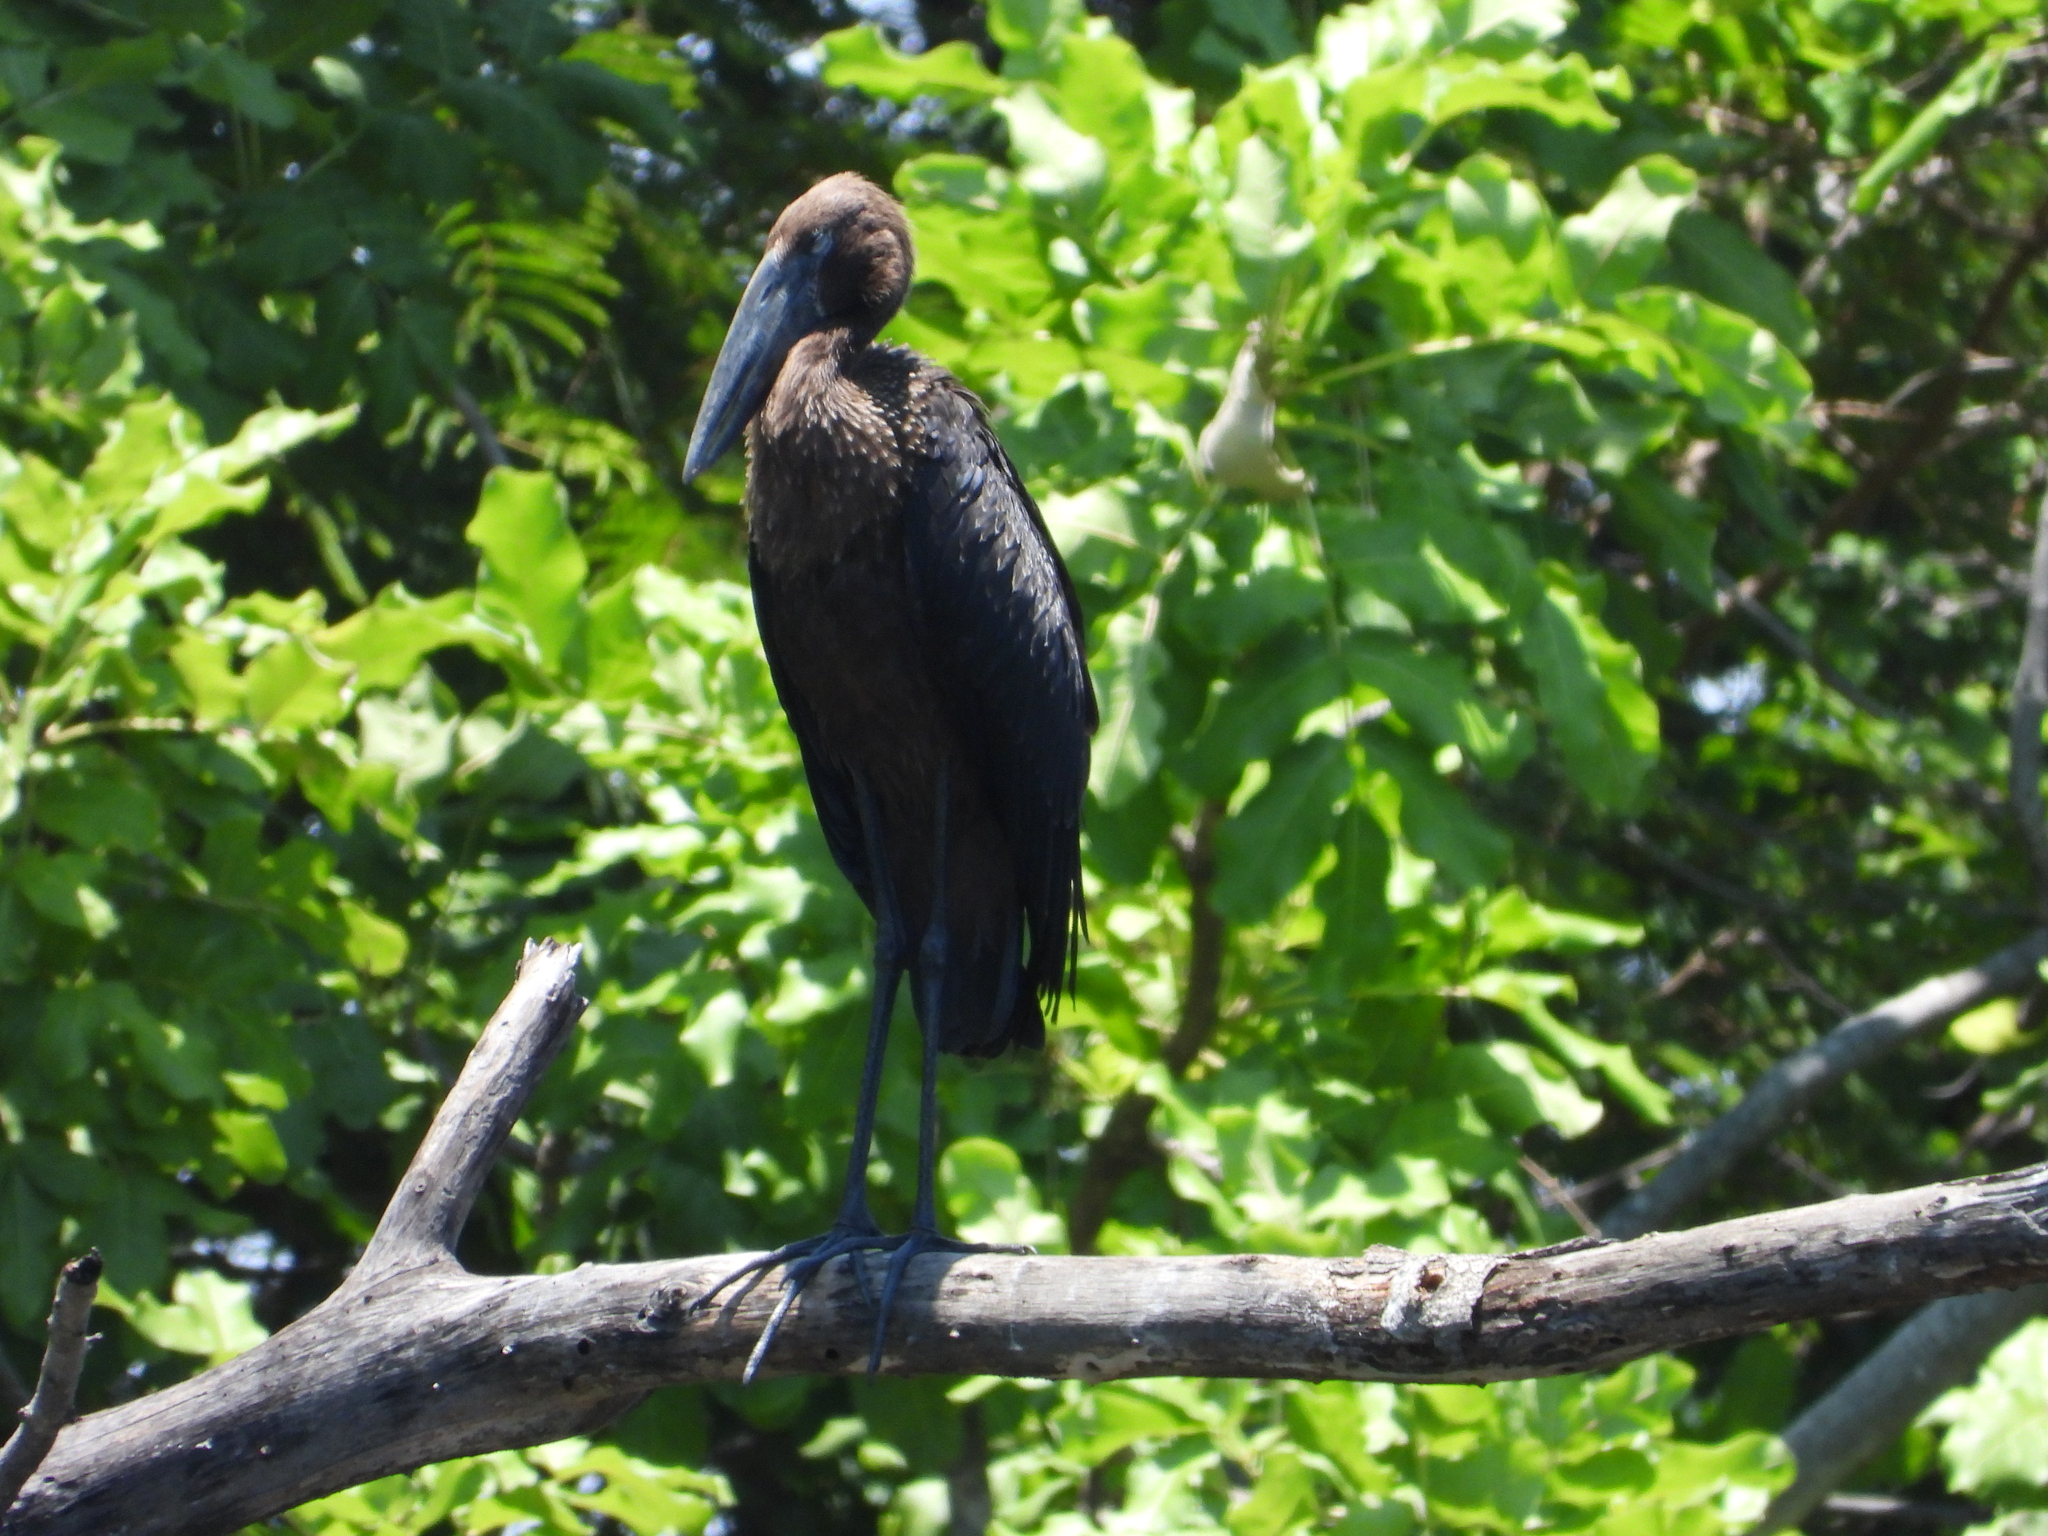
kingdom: Animalia
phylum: Chordata
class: Aves
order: Ciconiiformes
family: Ciconiidae
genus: Anastomus
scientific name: Anastomus lamelligerus
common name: African openbill
